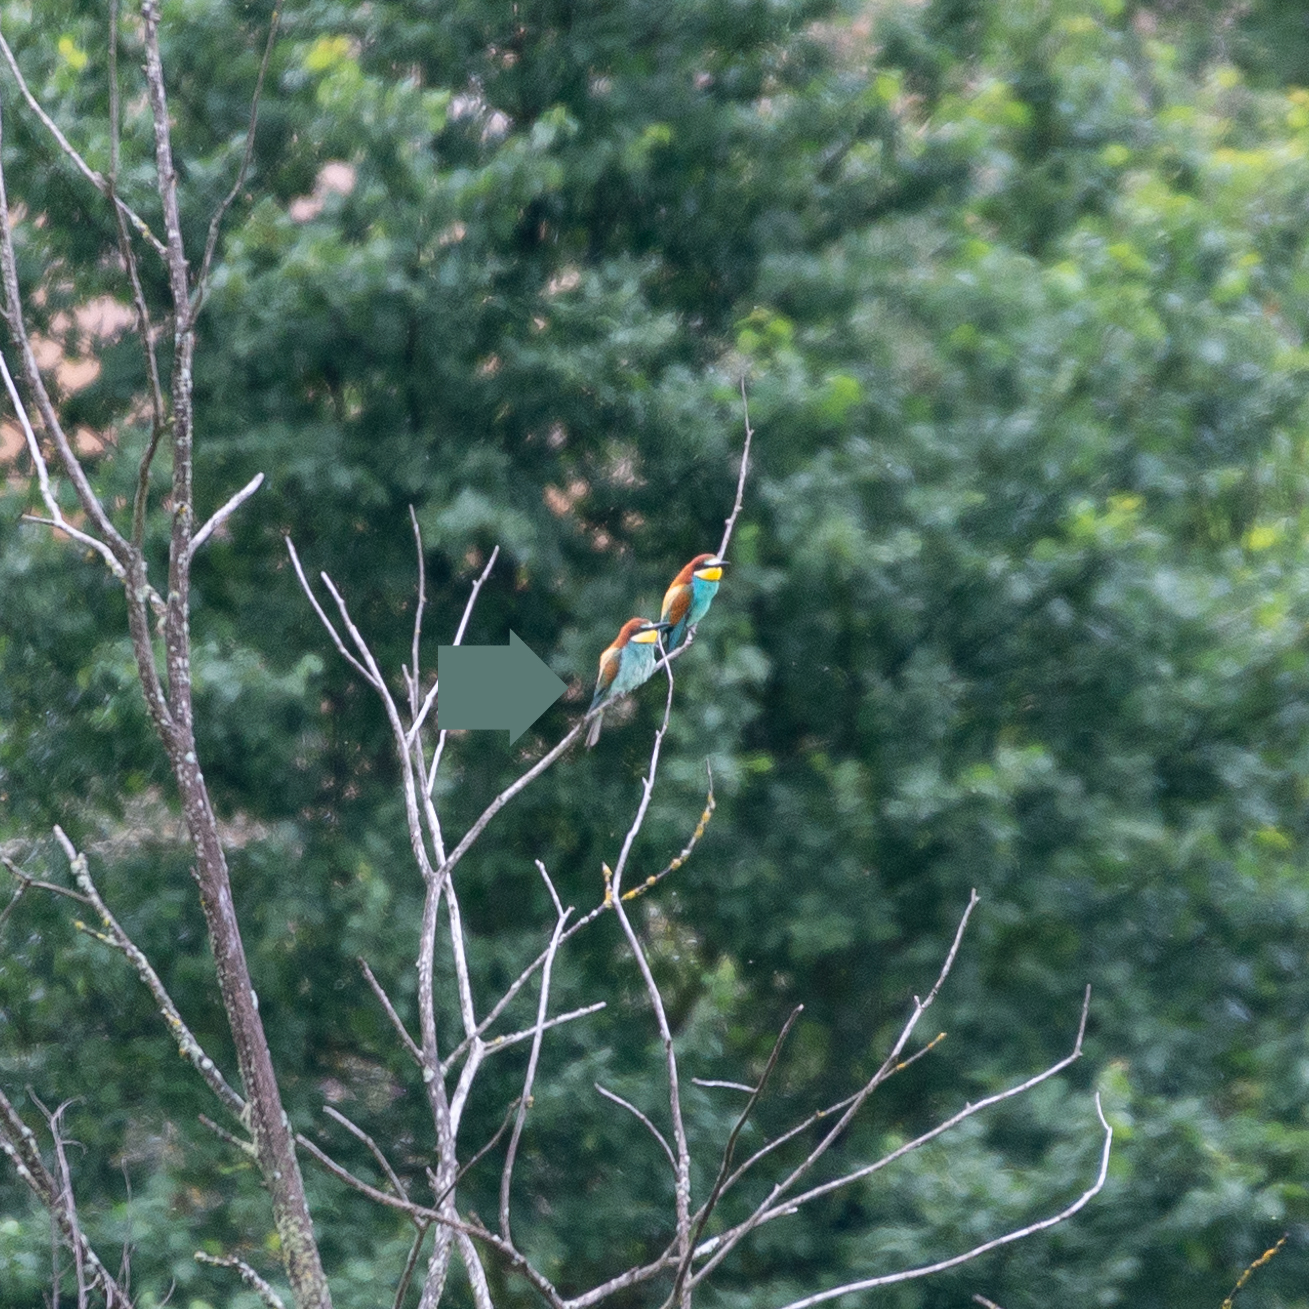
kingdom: Animalia
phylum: Chordata
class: Aves
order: Coraciiformes
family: Meropidae
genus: Merops
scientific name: Merops apiaster
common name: European bee-eater
